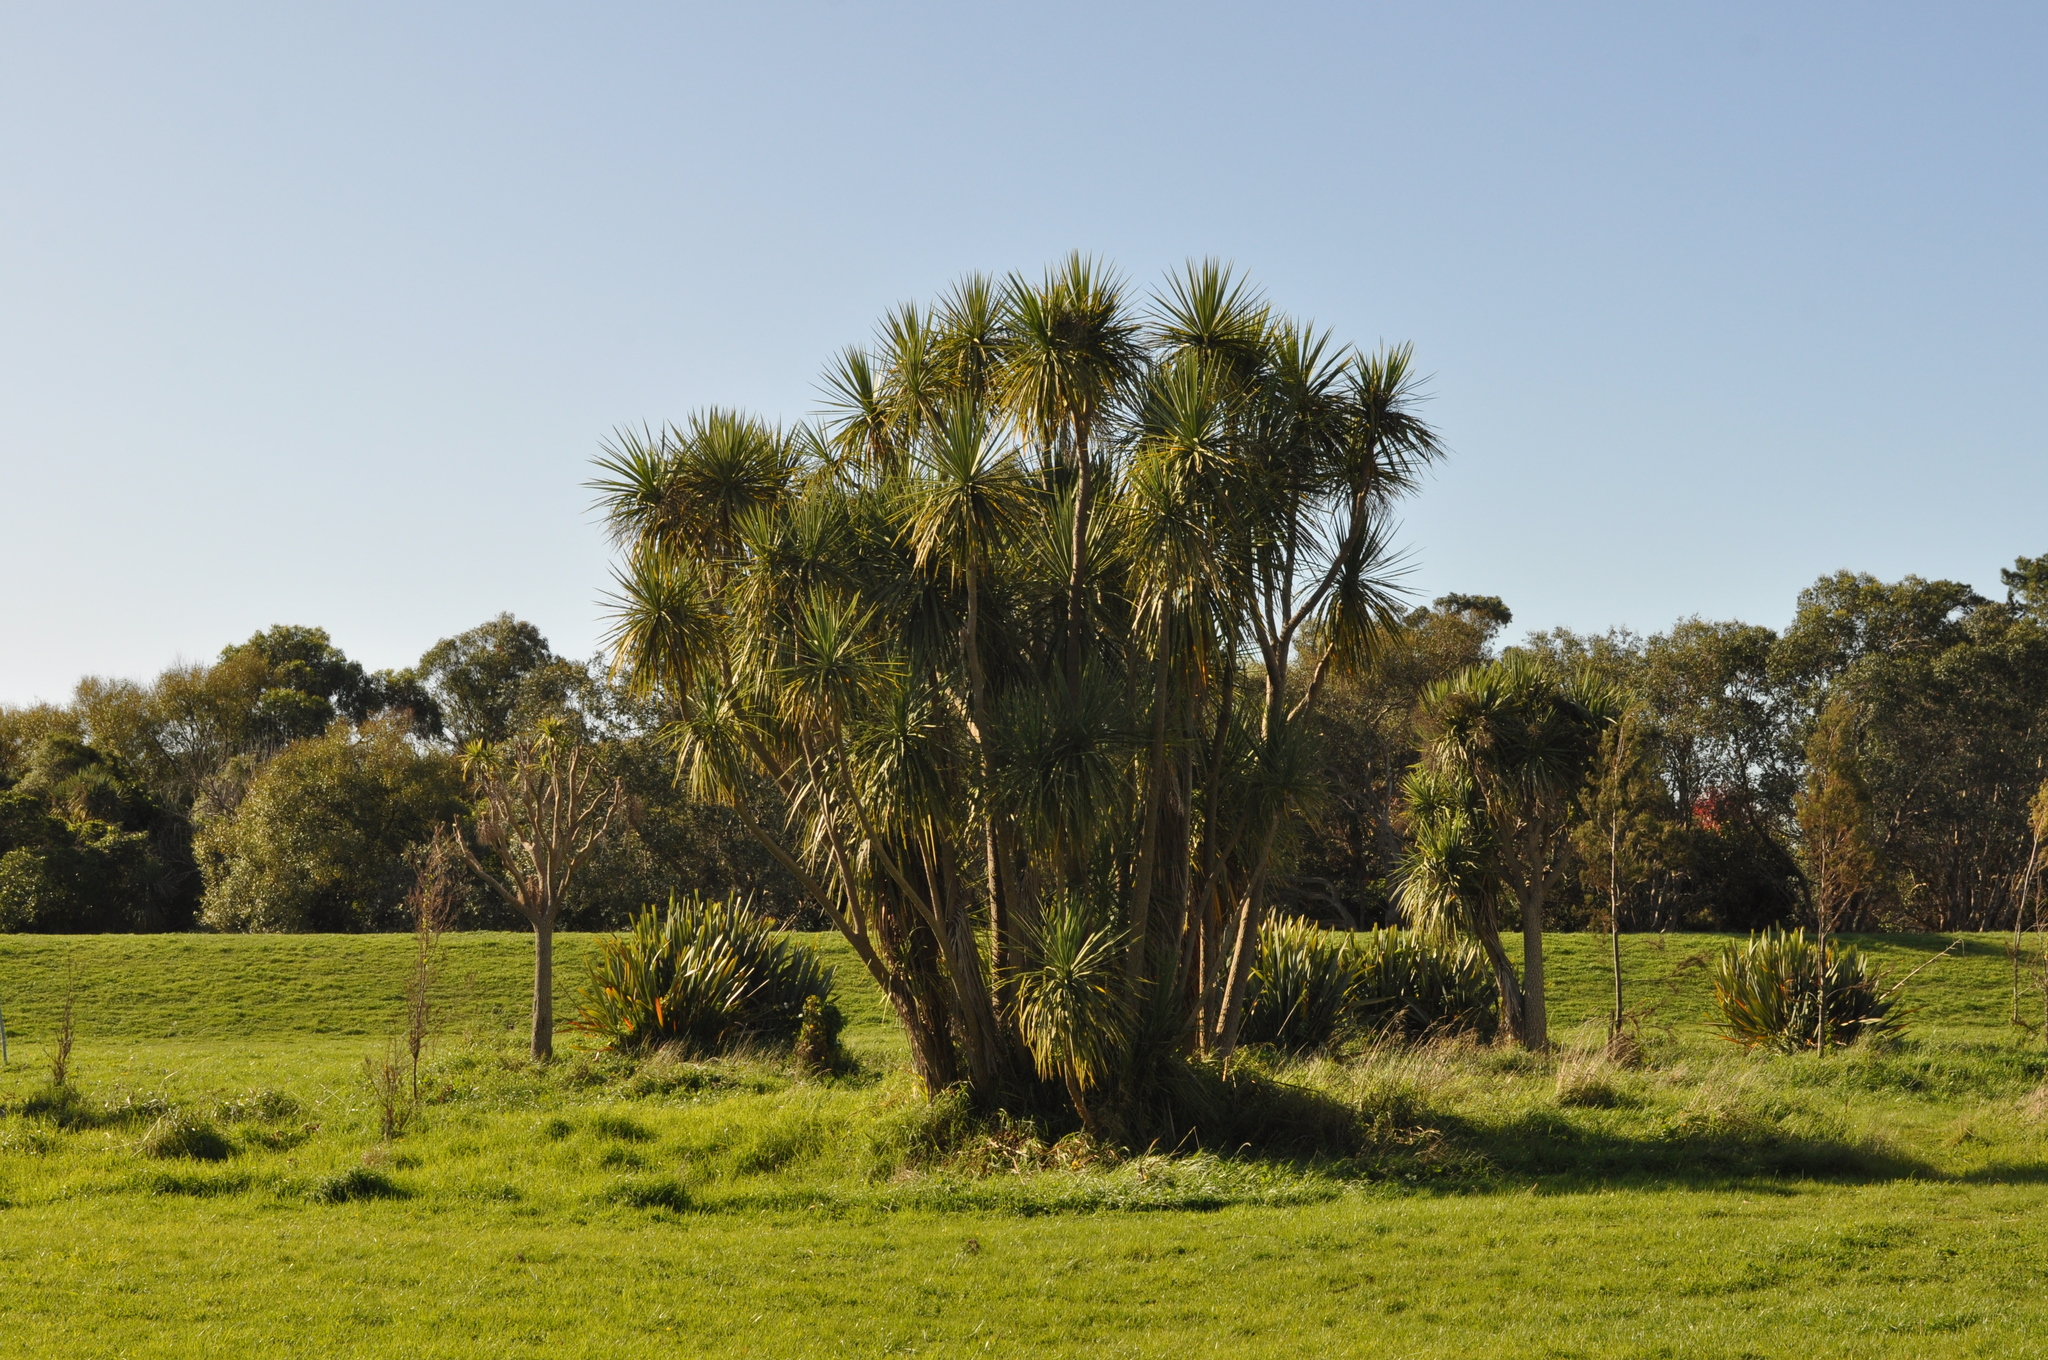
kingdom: Plantae
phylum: Tracheophyta
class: Liliopsida
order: Asparagales
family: Asparagaceae
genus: Cordyline
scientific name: Cordyline australis
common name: Cabbage-palm
